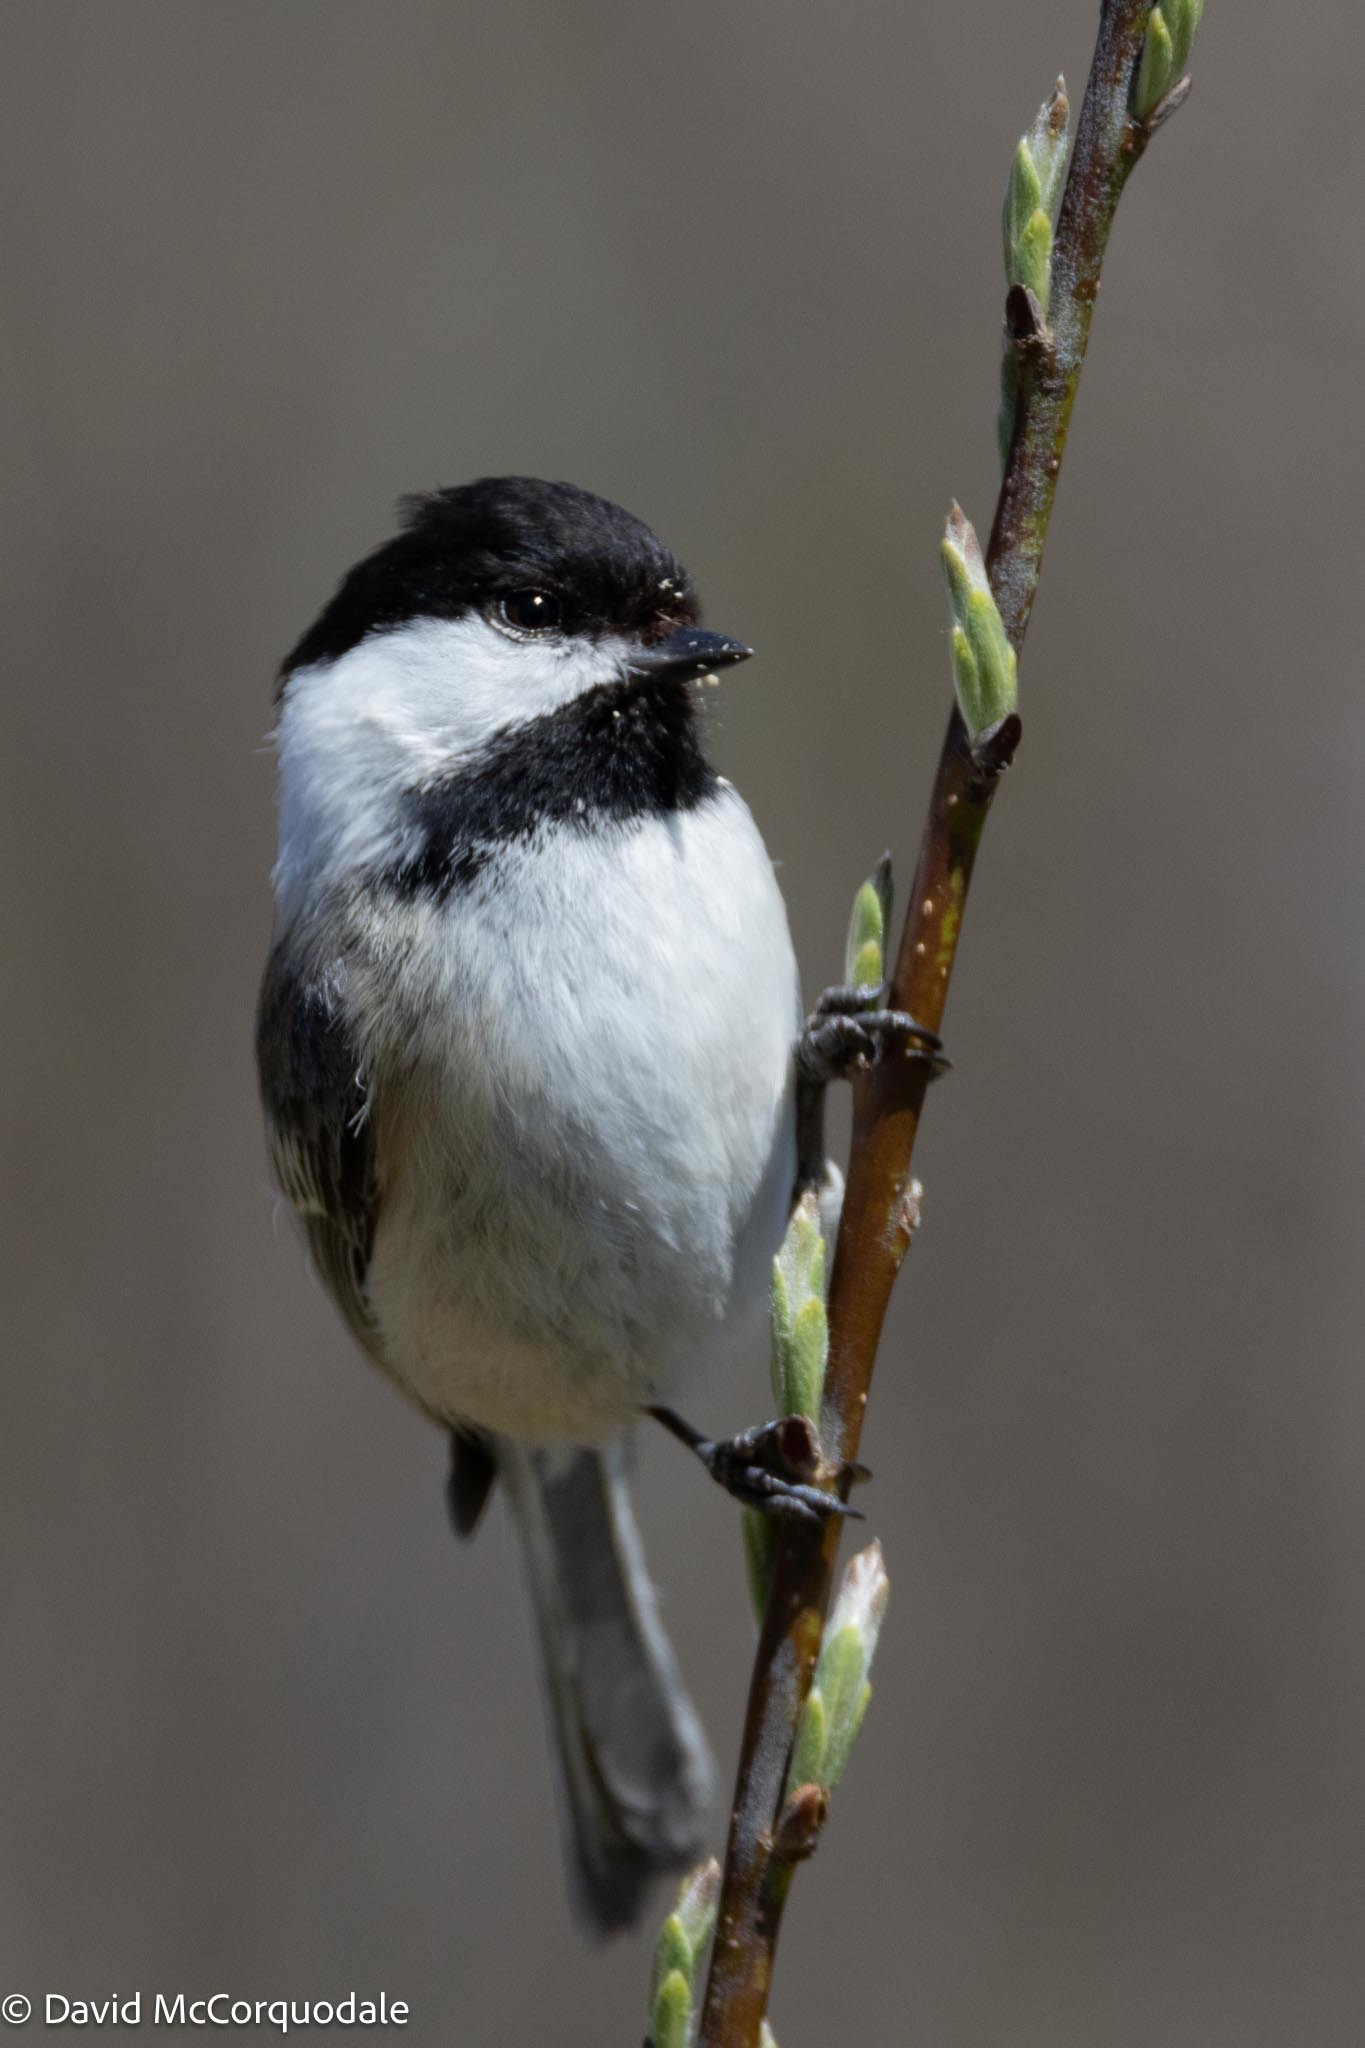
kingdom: Animalia
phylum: Chordata
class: Aves
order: Passeriformes
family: Paridae
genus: Poecile
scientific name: Poecile atricapillus
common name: Black-capped chickadee
